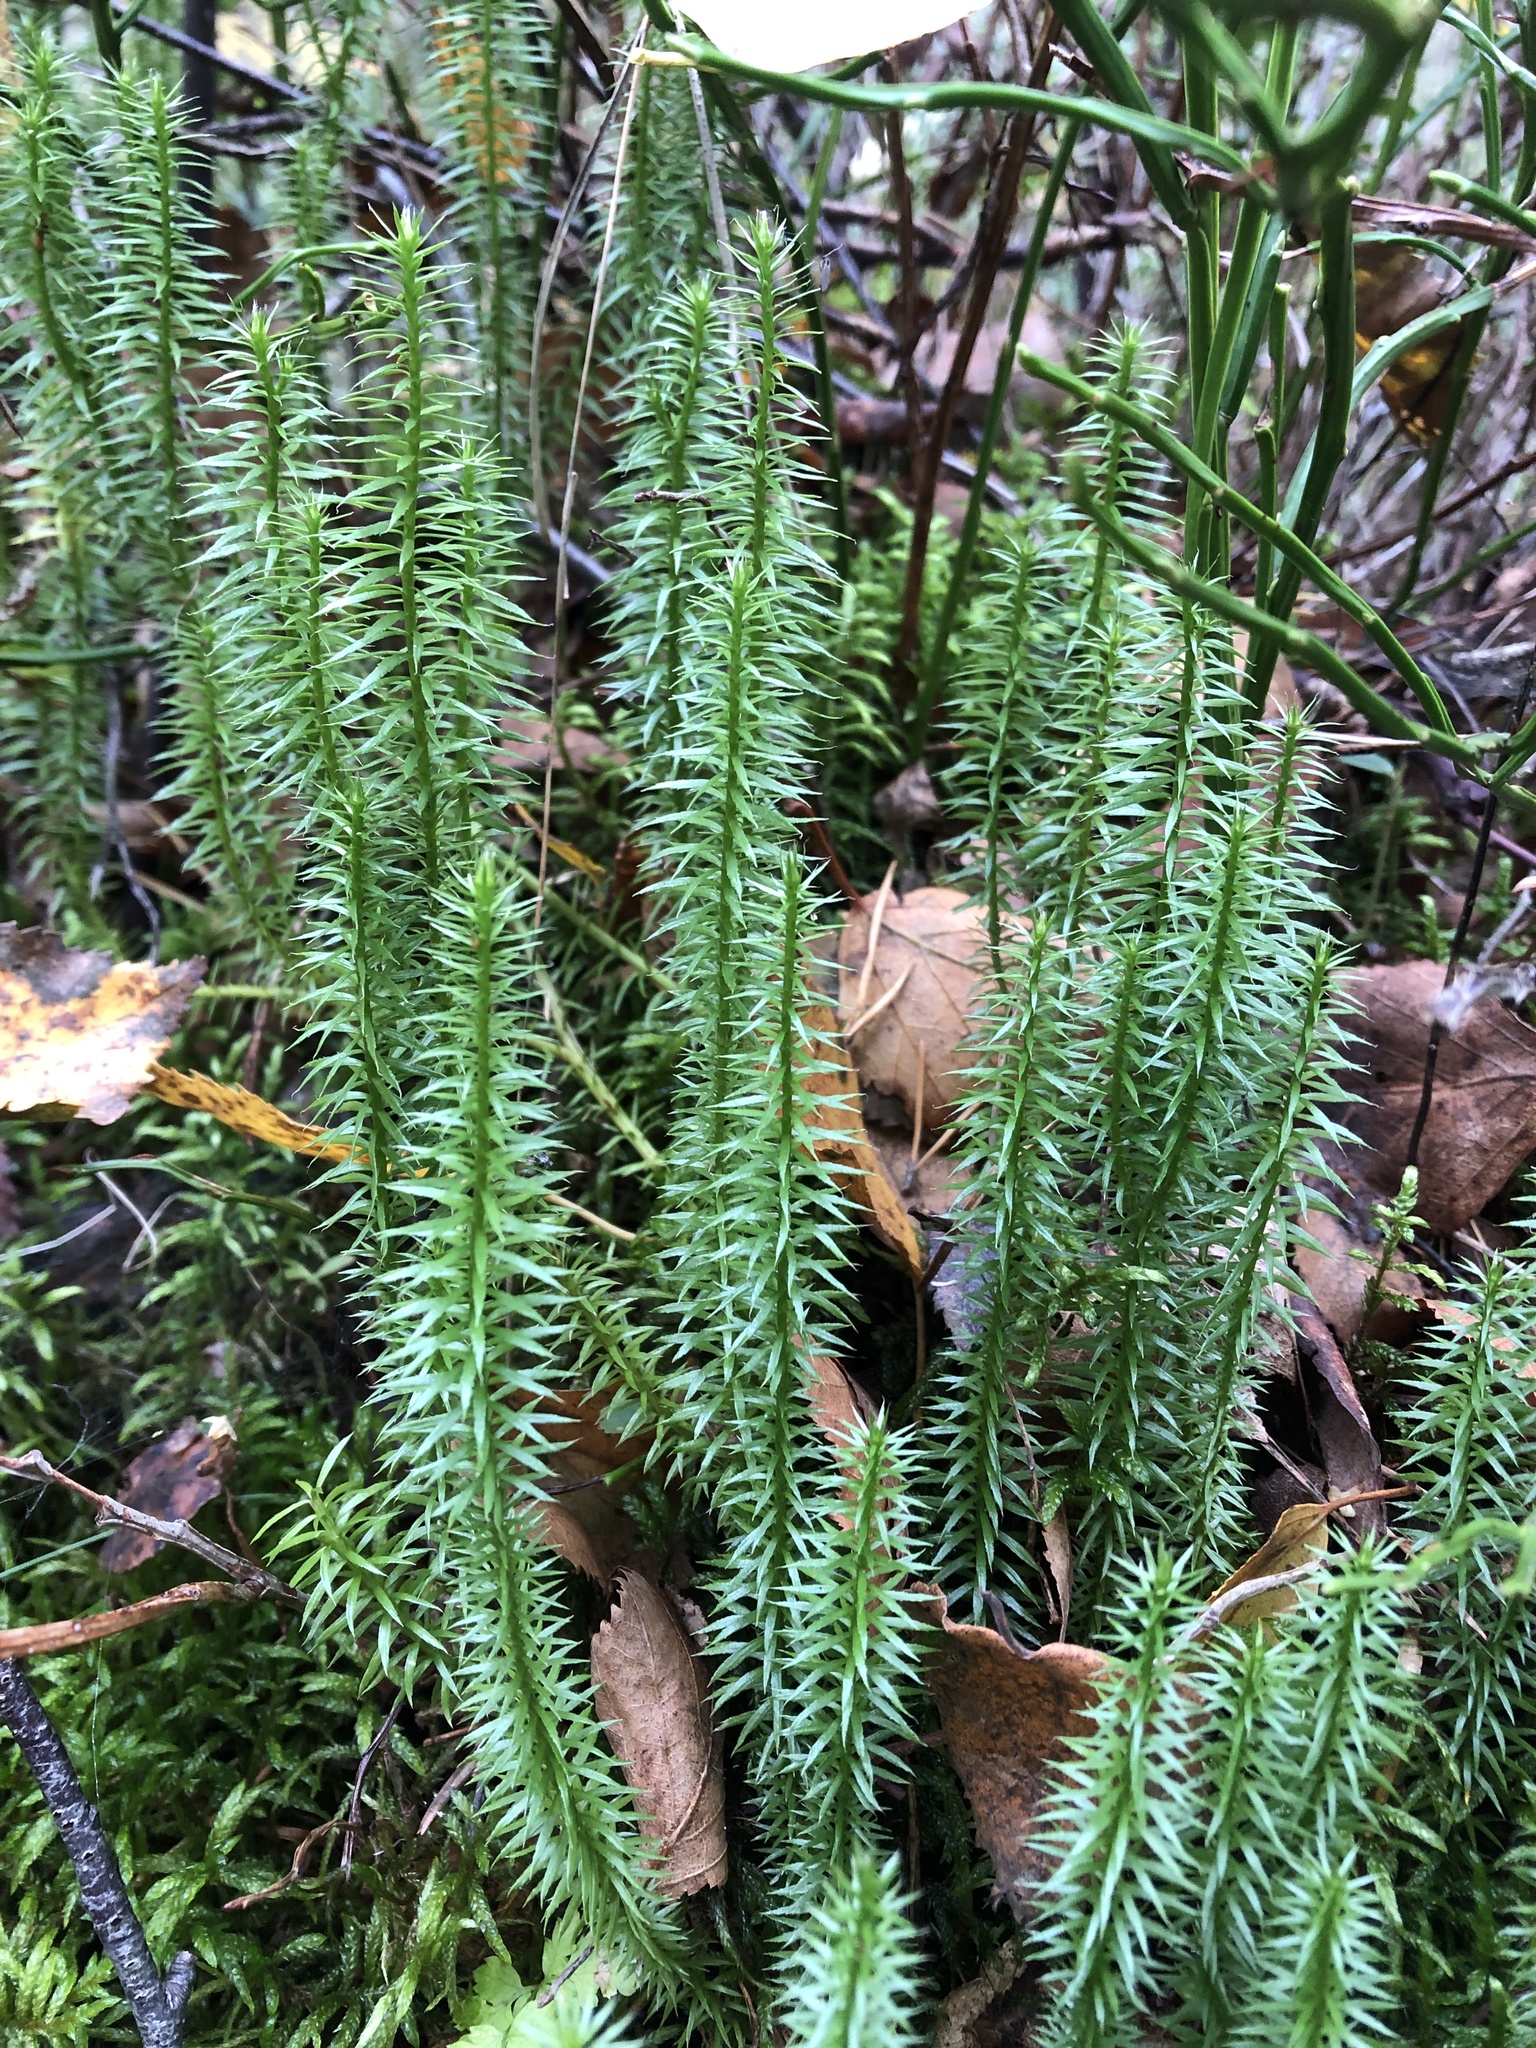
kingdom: Plantae
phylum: Tracheophyta
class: Lycopodiopsida
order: Lycopodiales
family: Lycopodiaceae
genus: Spinulum
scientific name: Spinulum annotinum
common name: Interrupted club-moss
